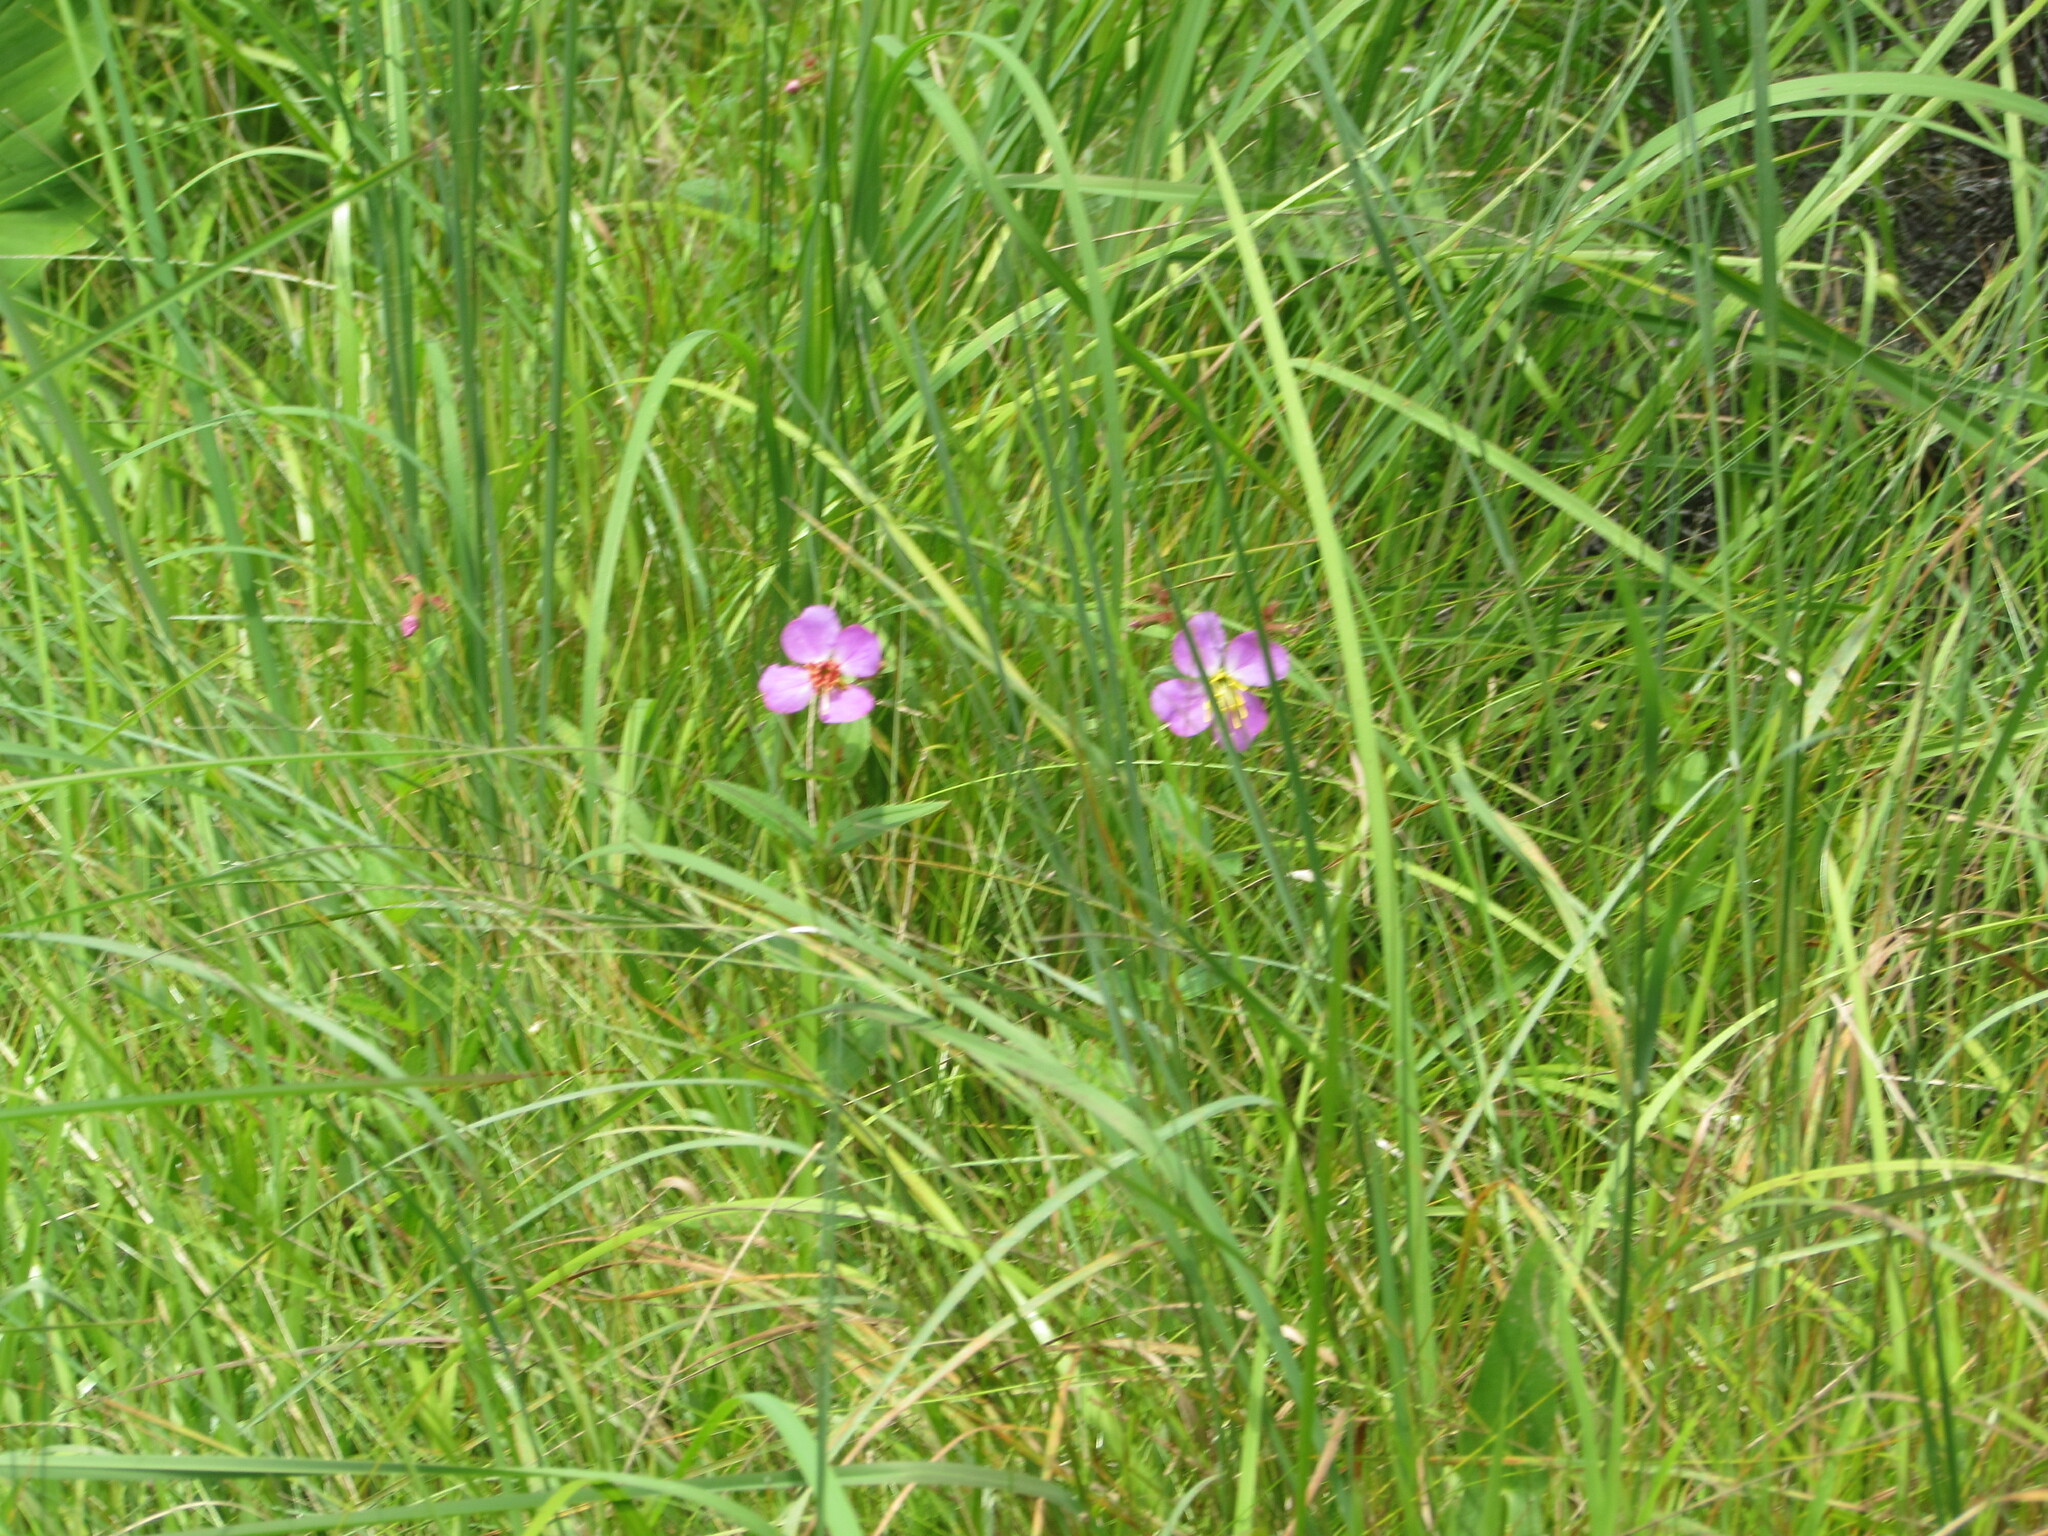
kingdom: Plantae
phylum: Tracheophyta
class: Magnoliopsida
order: Myrtales
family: Melastomataceae
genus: Rhexia
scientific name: Rhexia virginica
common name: Common meadow beauty
